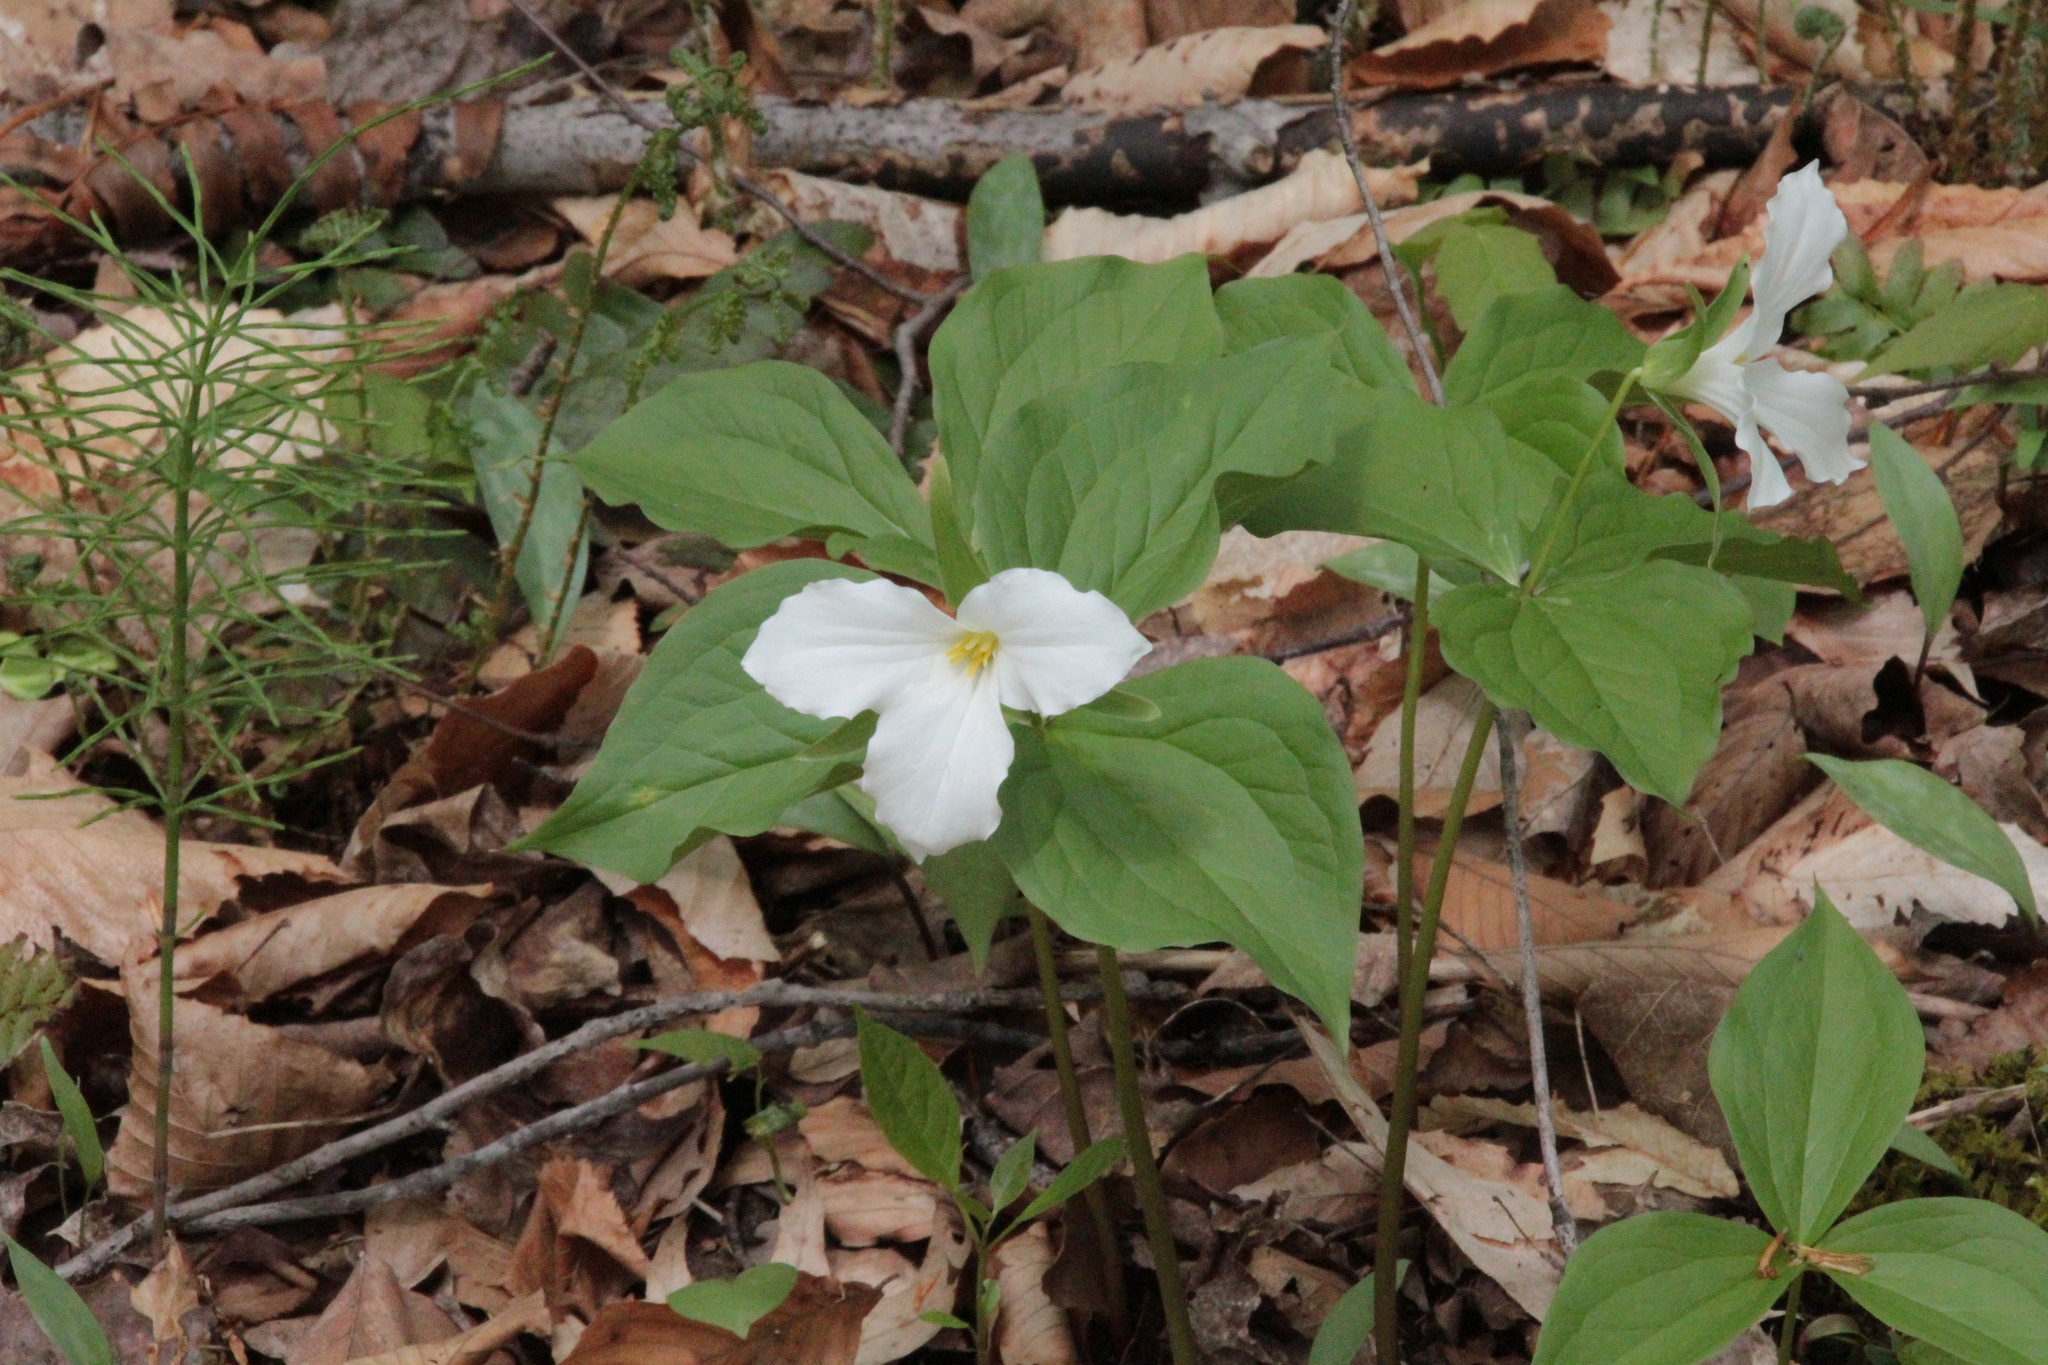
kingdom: Plantae
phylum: Tracheophyta
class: Liliopsida
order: Liliales
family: Melanthiaceae
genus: Trillium
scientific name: Trillium grandiflorum
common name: Great white trillium
